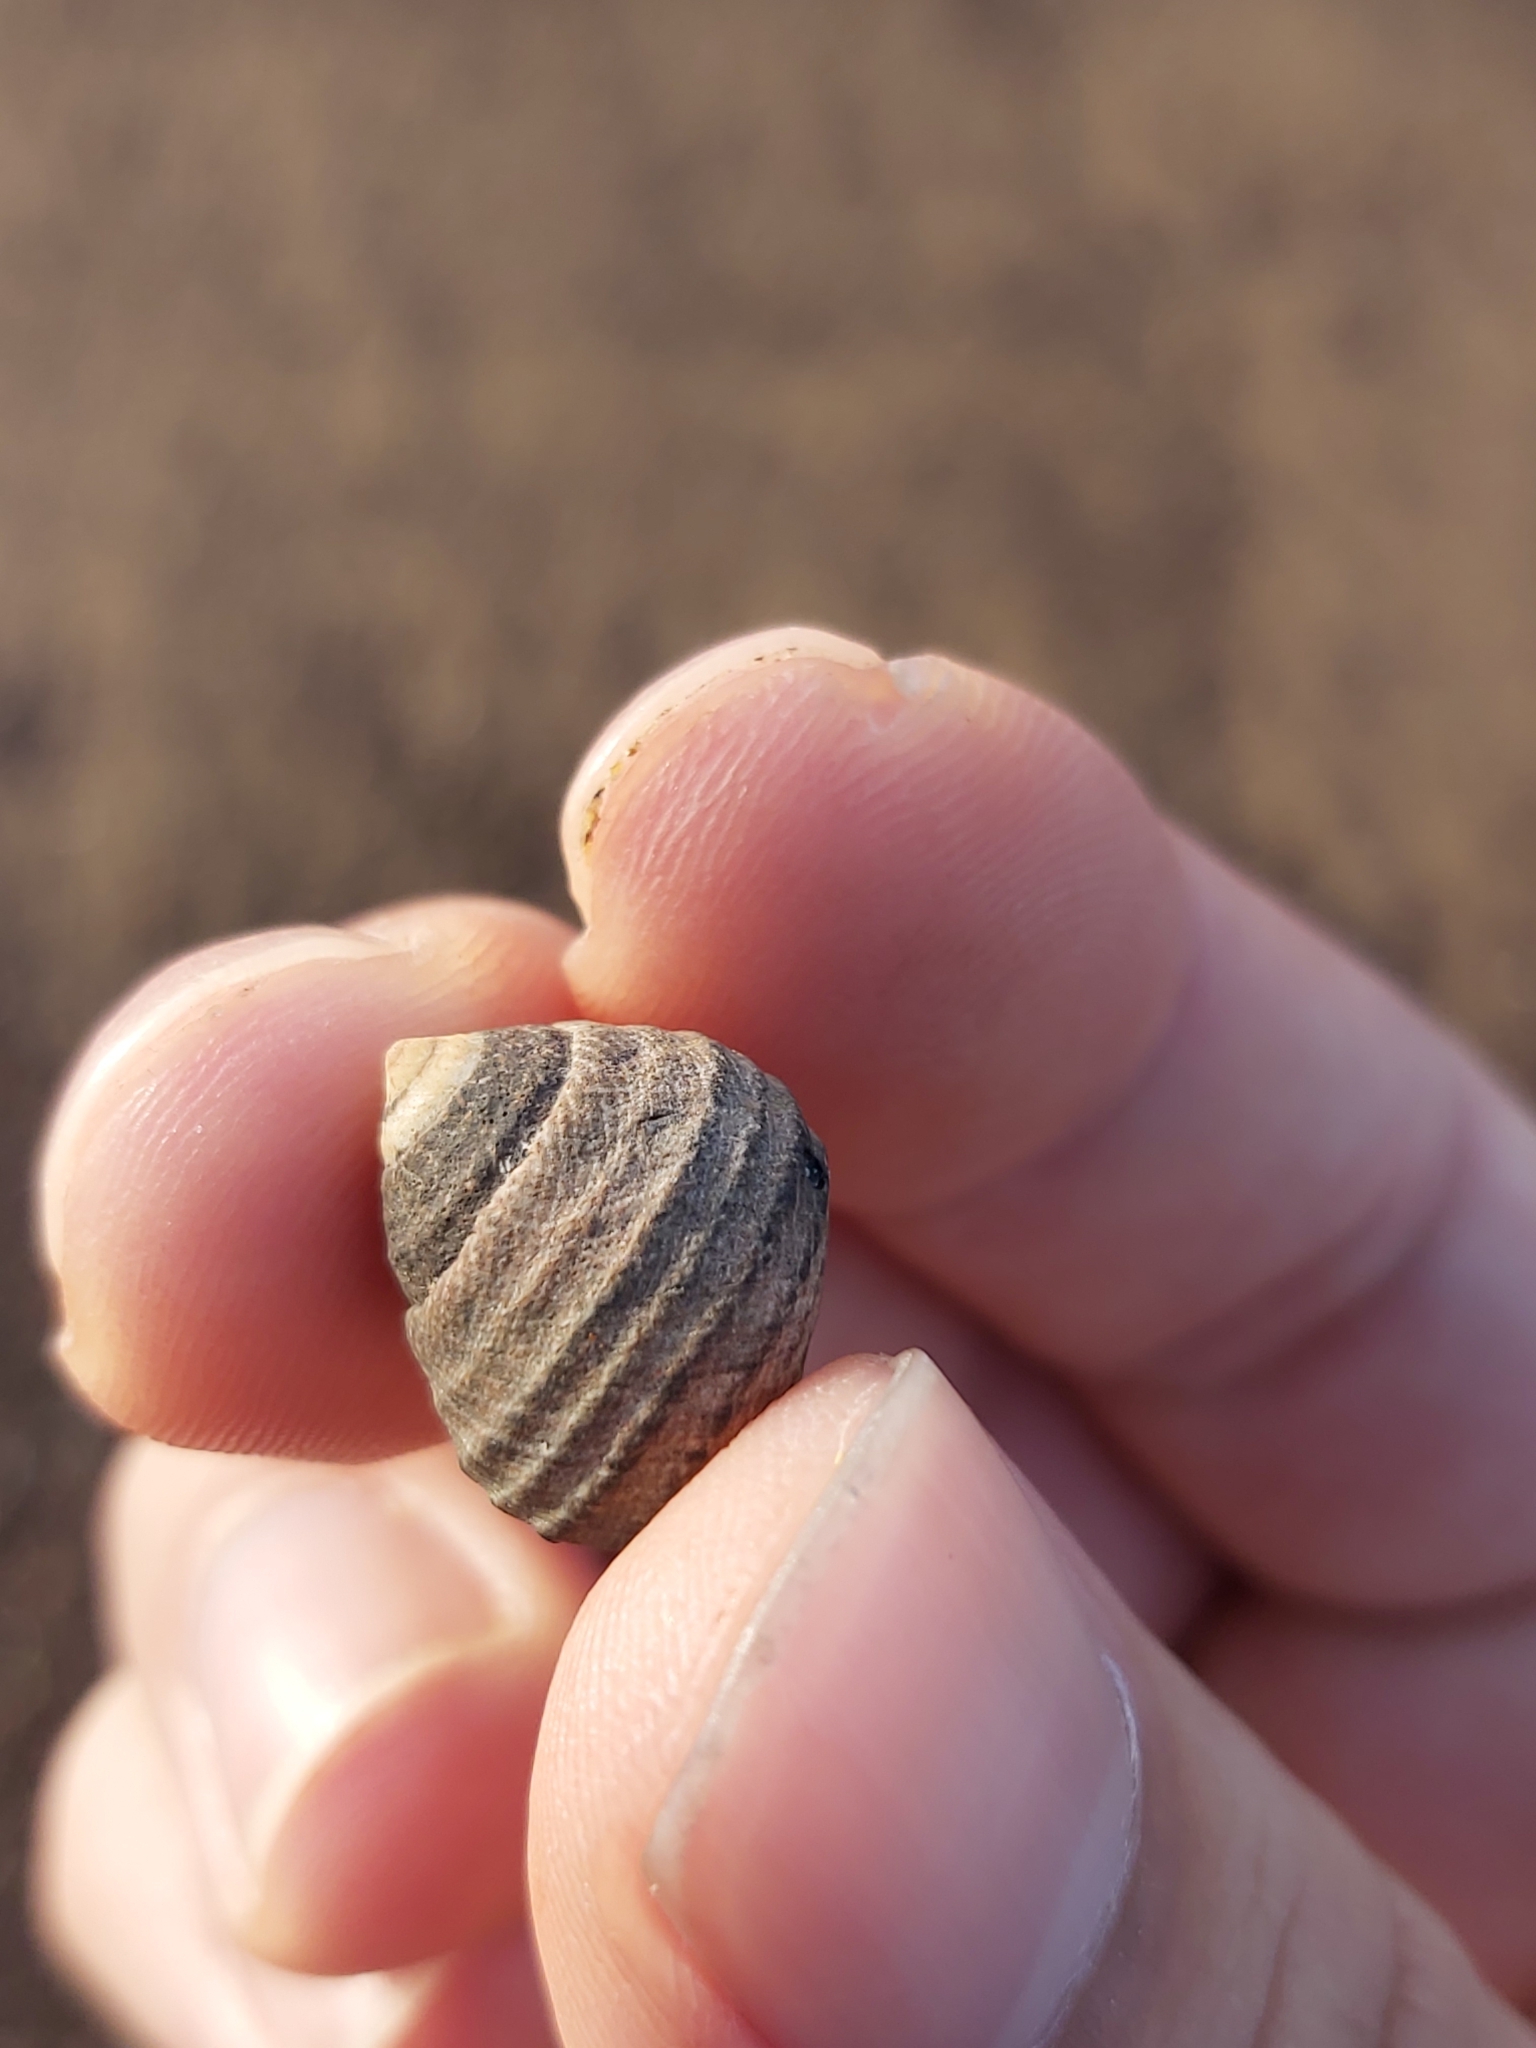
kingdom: Animalia
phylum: Mollusca
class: Gastropoda
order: Trochida
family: Trochidae
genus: Austrocochlea
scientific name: Austrocochlea porcata
